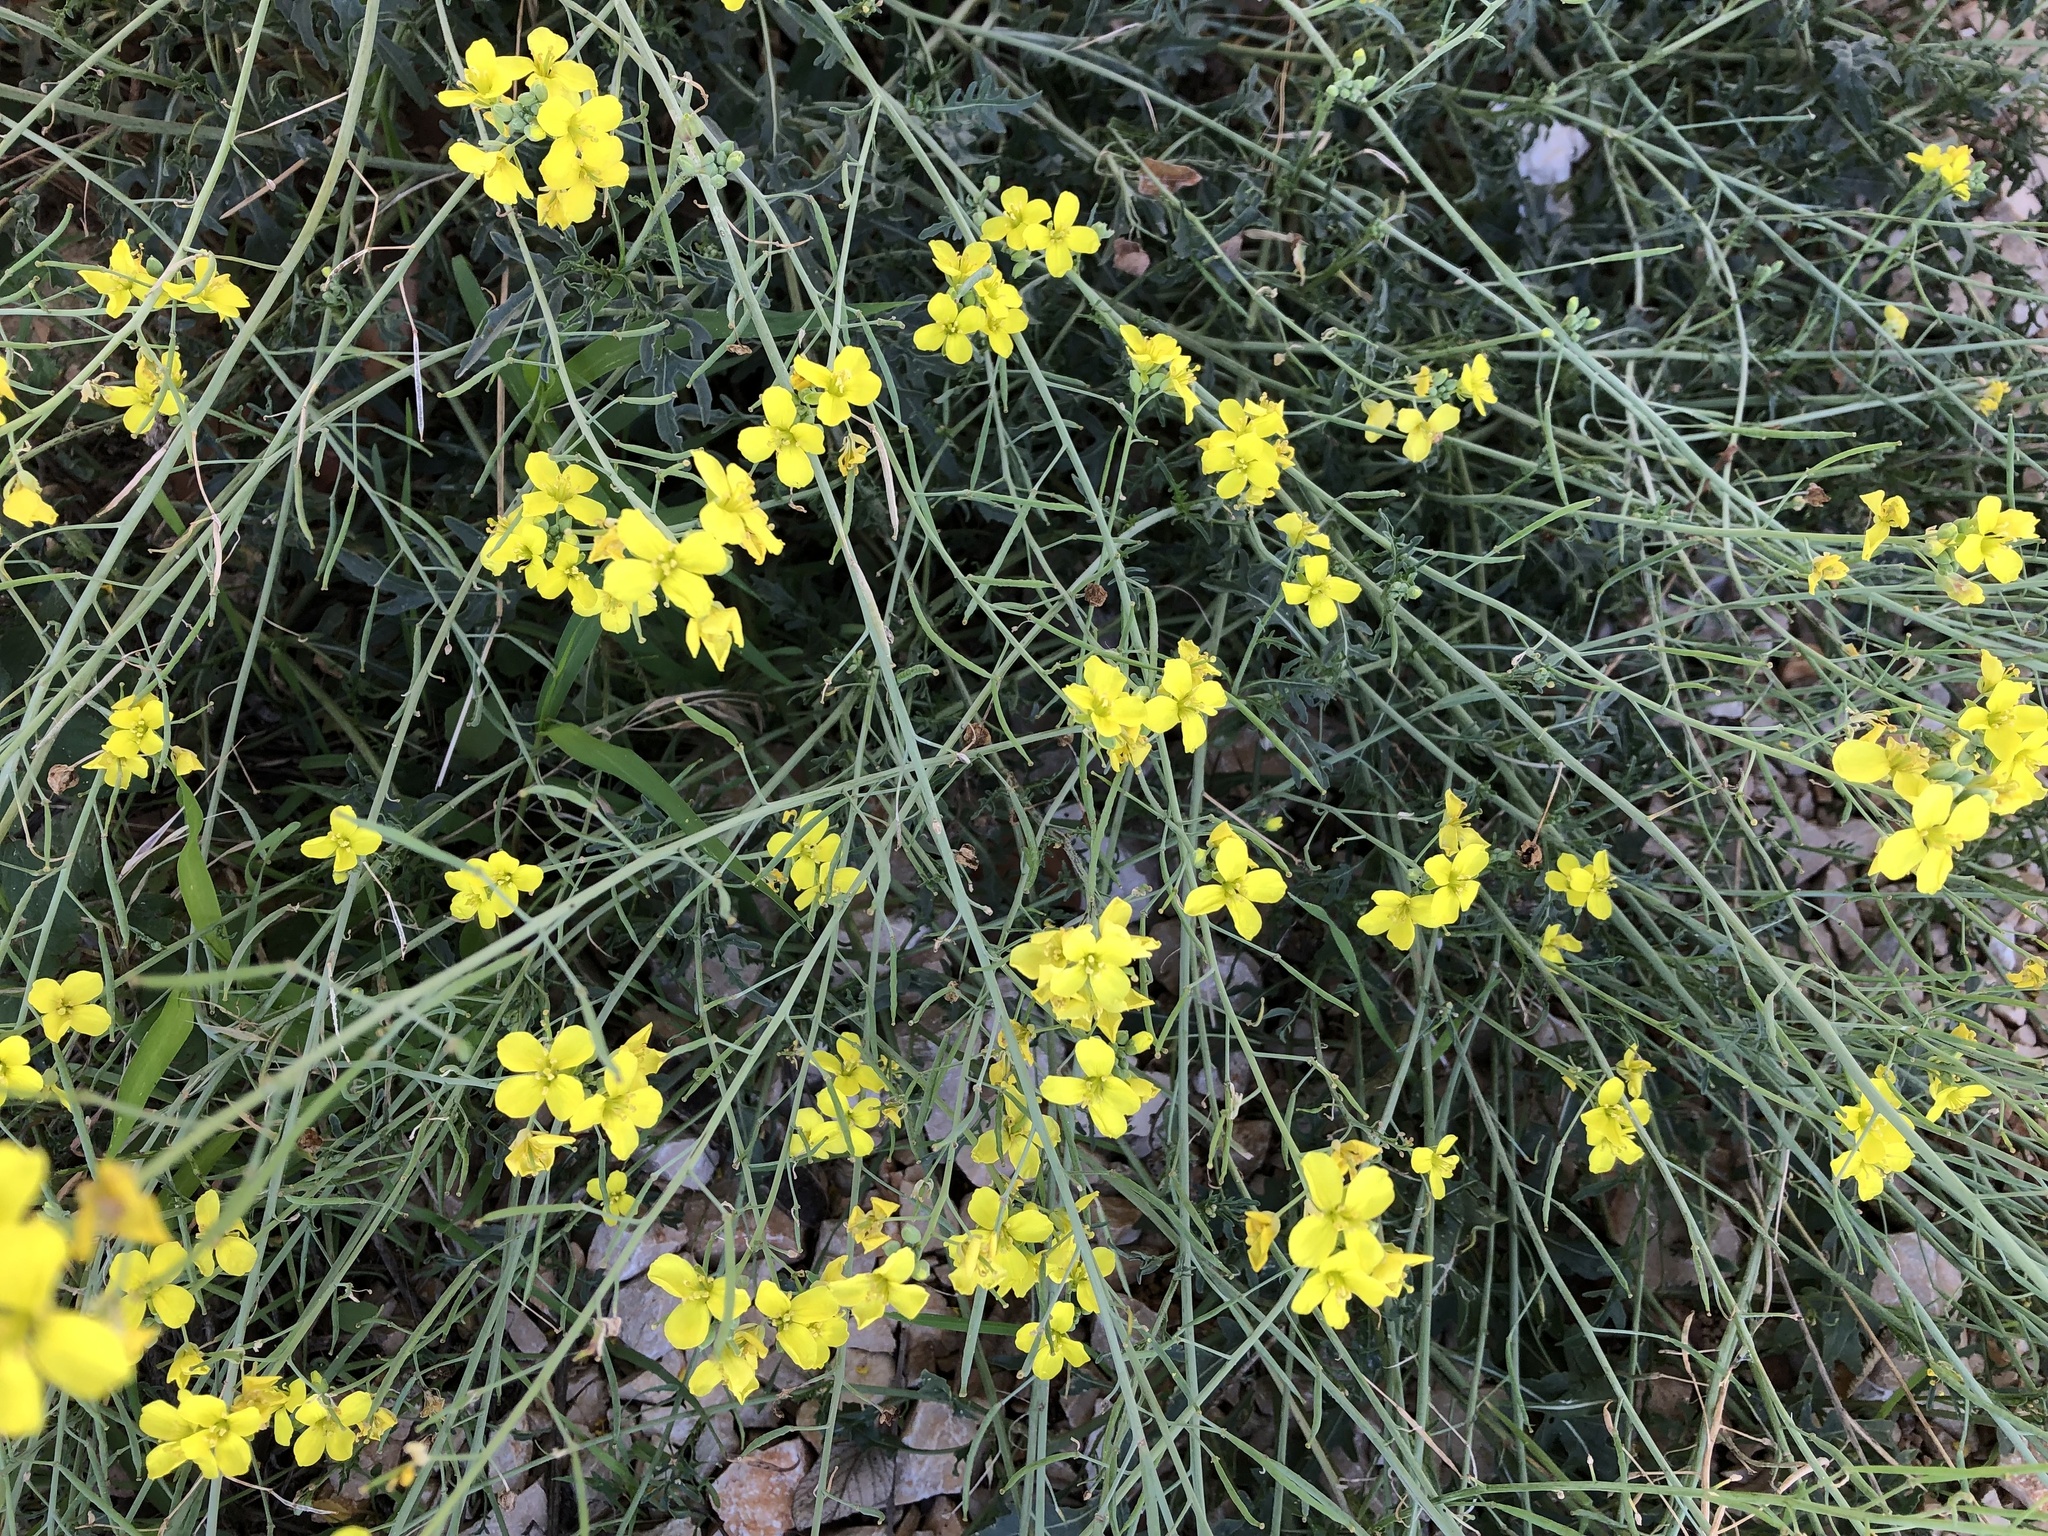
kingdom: Plantae
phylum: Tracheophyta
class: Magnoliopsida
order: Brassicales
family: Brassicaceae
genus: Diplotaxis
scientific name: Diplotaxis tenuifolia
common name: Perennial wall-rocket
